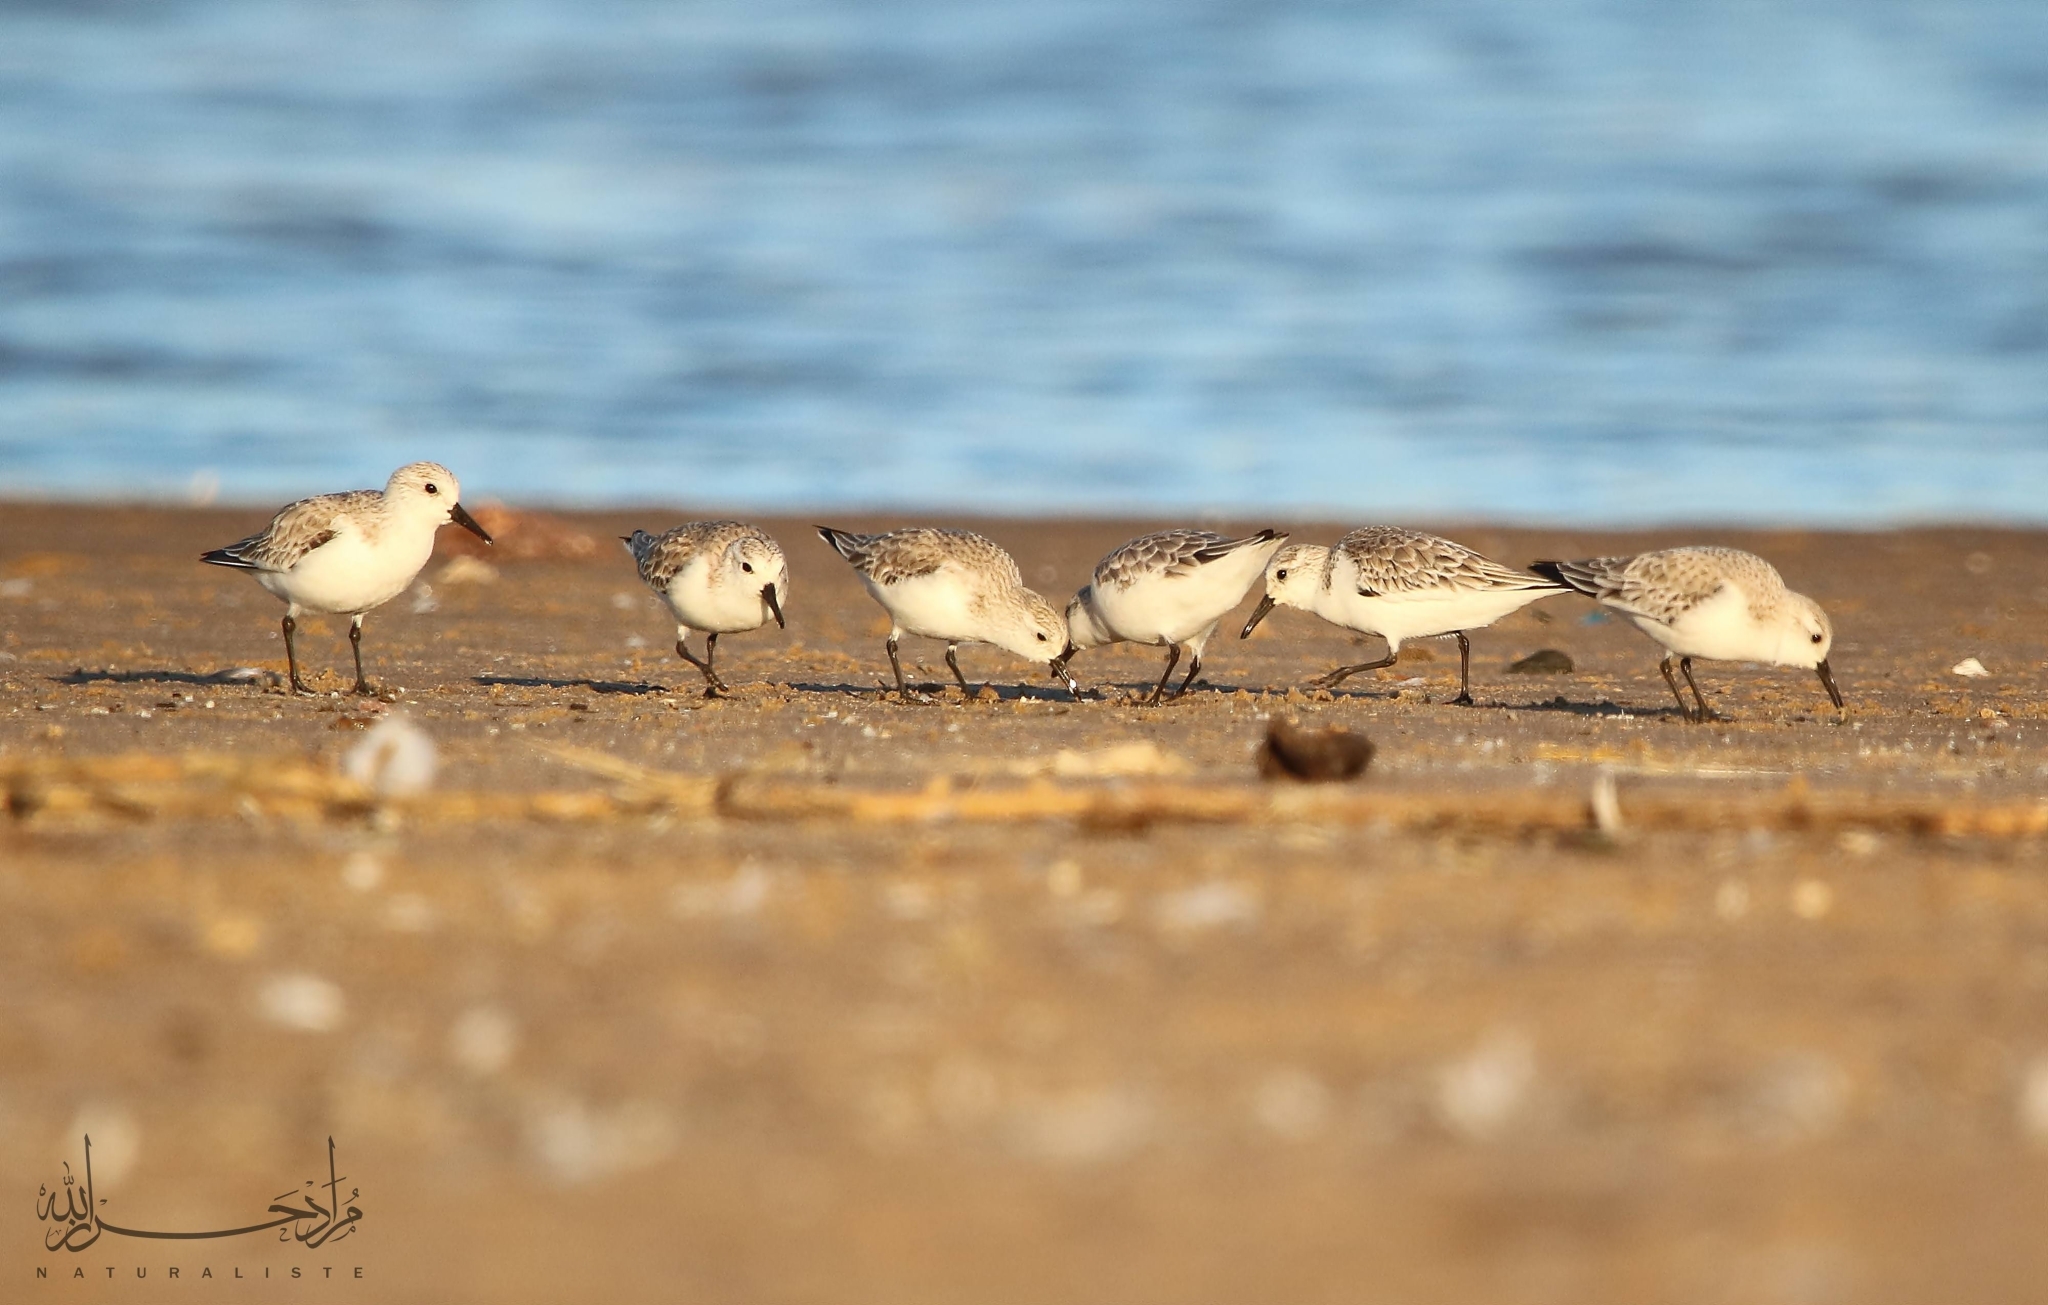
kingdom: Animalia
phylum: Chordata
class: Aves
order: Charadriiformes
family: Scolopacidae
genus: Calidris
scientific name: Calidris alba
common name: Sanderling
